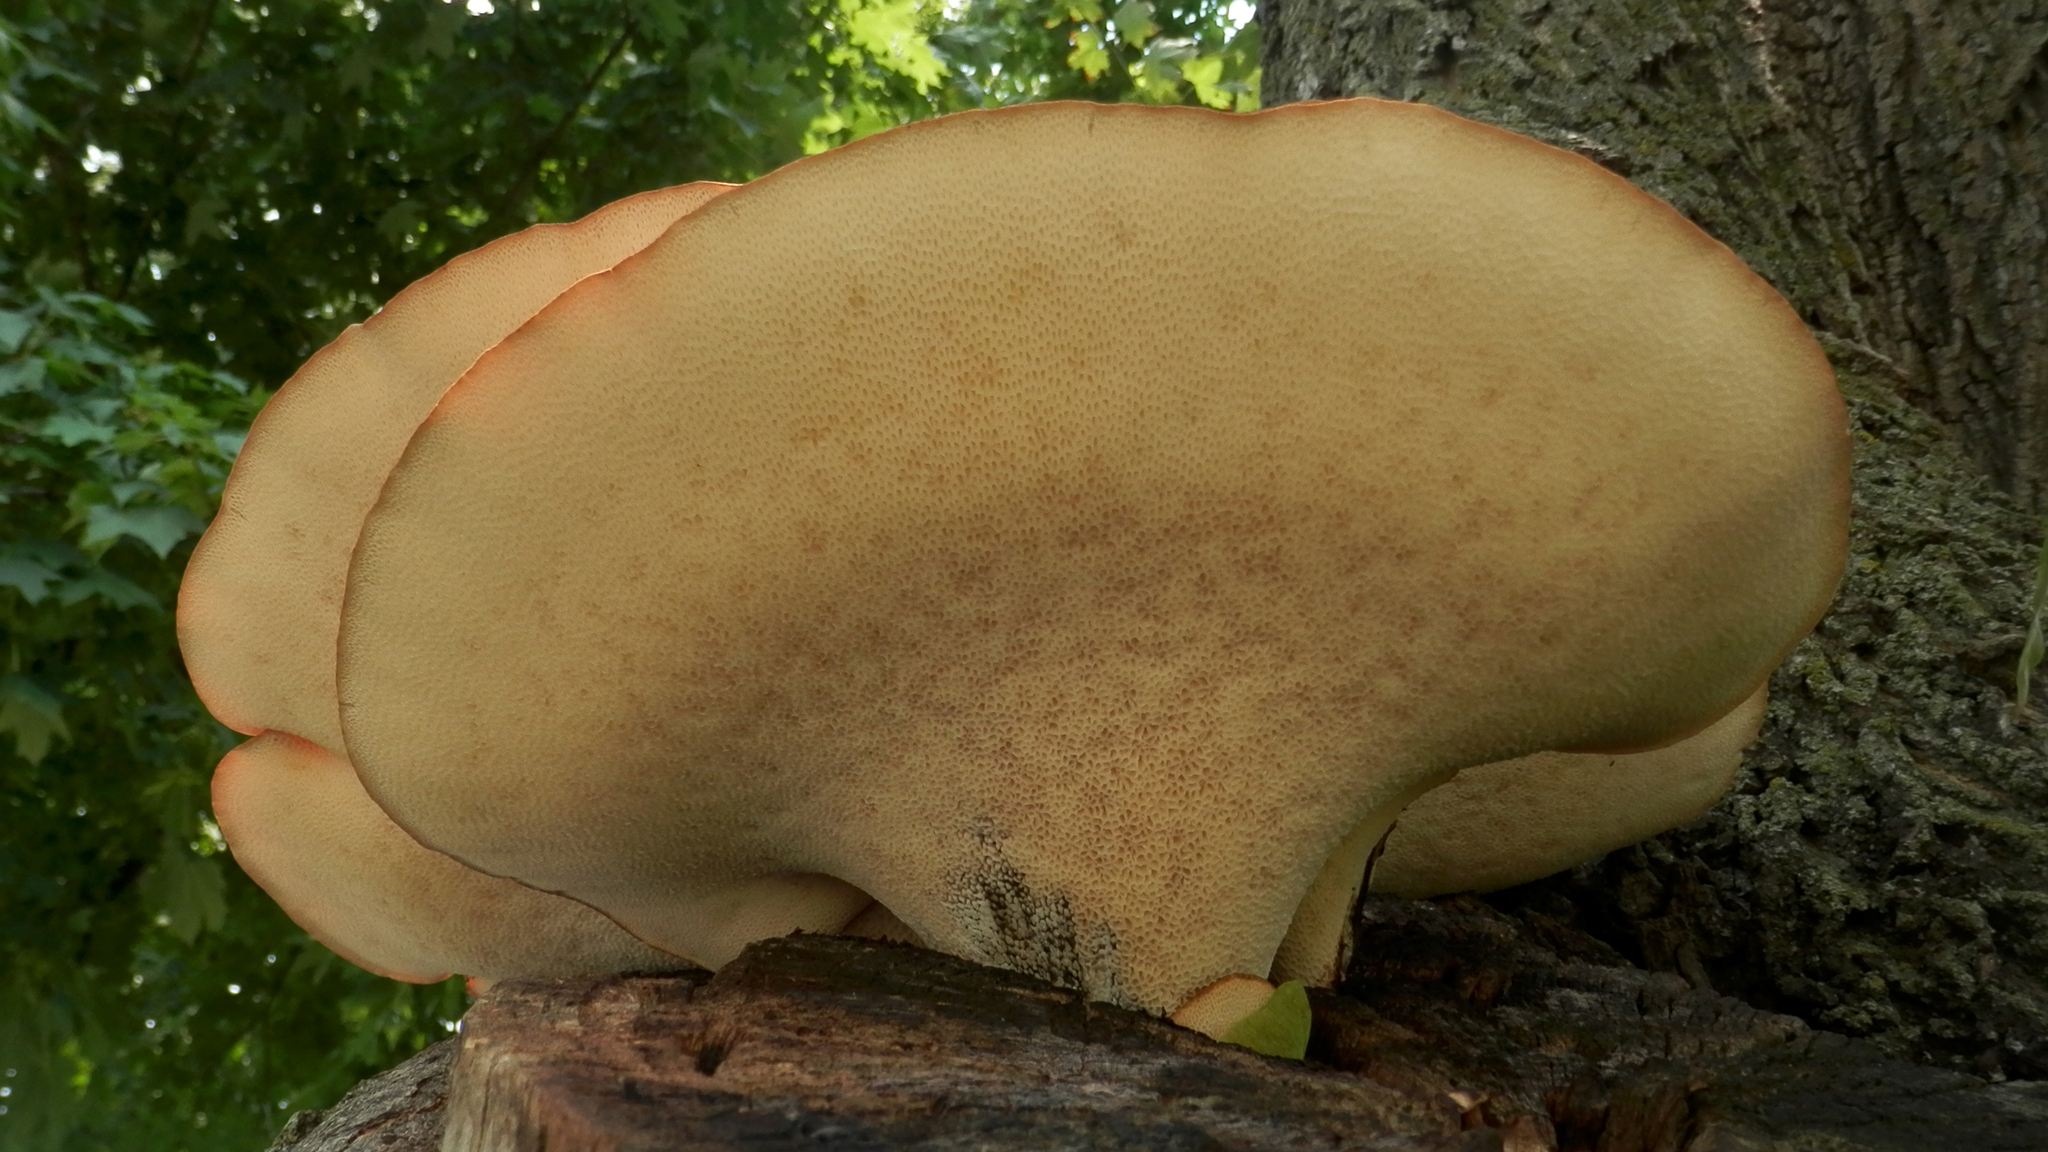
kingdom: Fungi
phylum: Basidiomycota
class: Agaricomycetes
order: Polyporales
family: Polyporaceae
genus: Cerioporus
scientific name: Cerioporus squamosus
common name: Dryad's saddle
